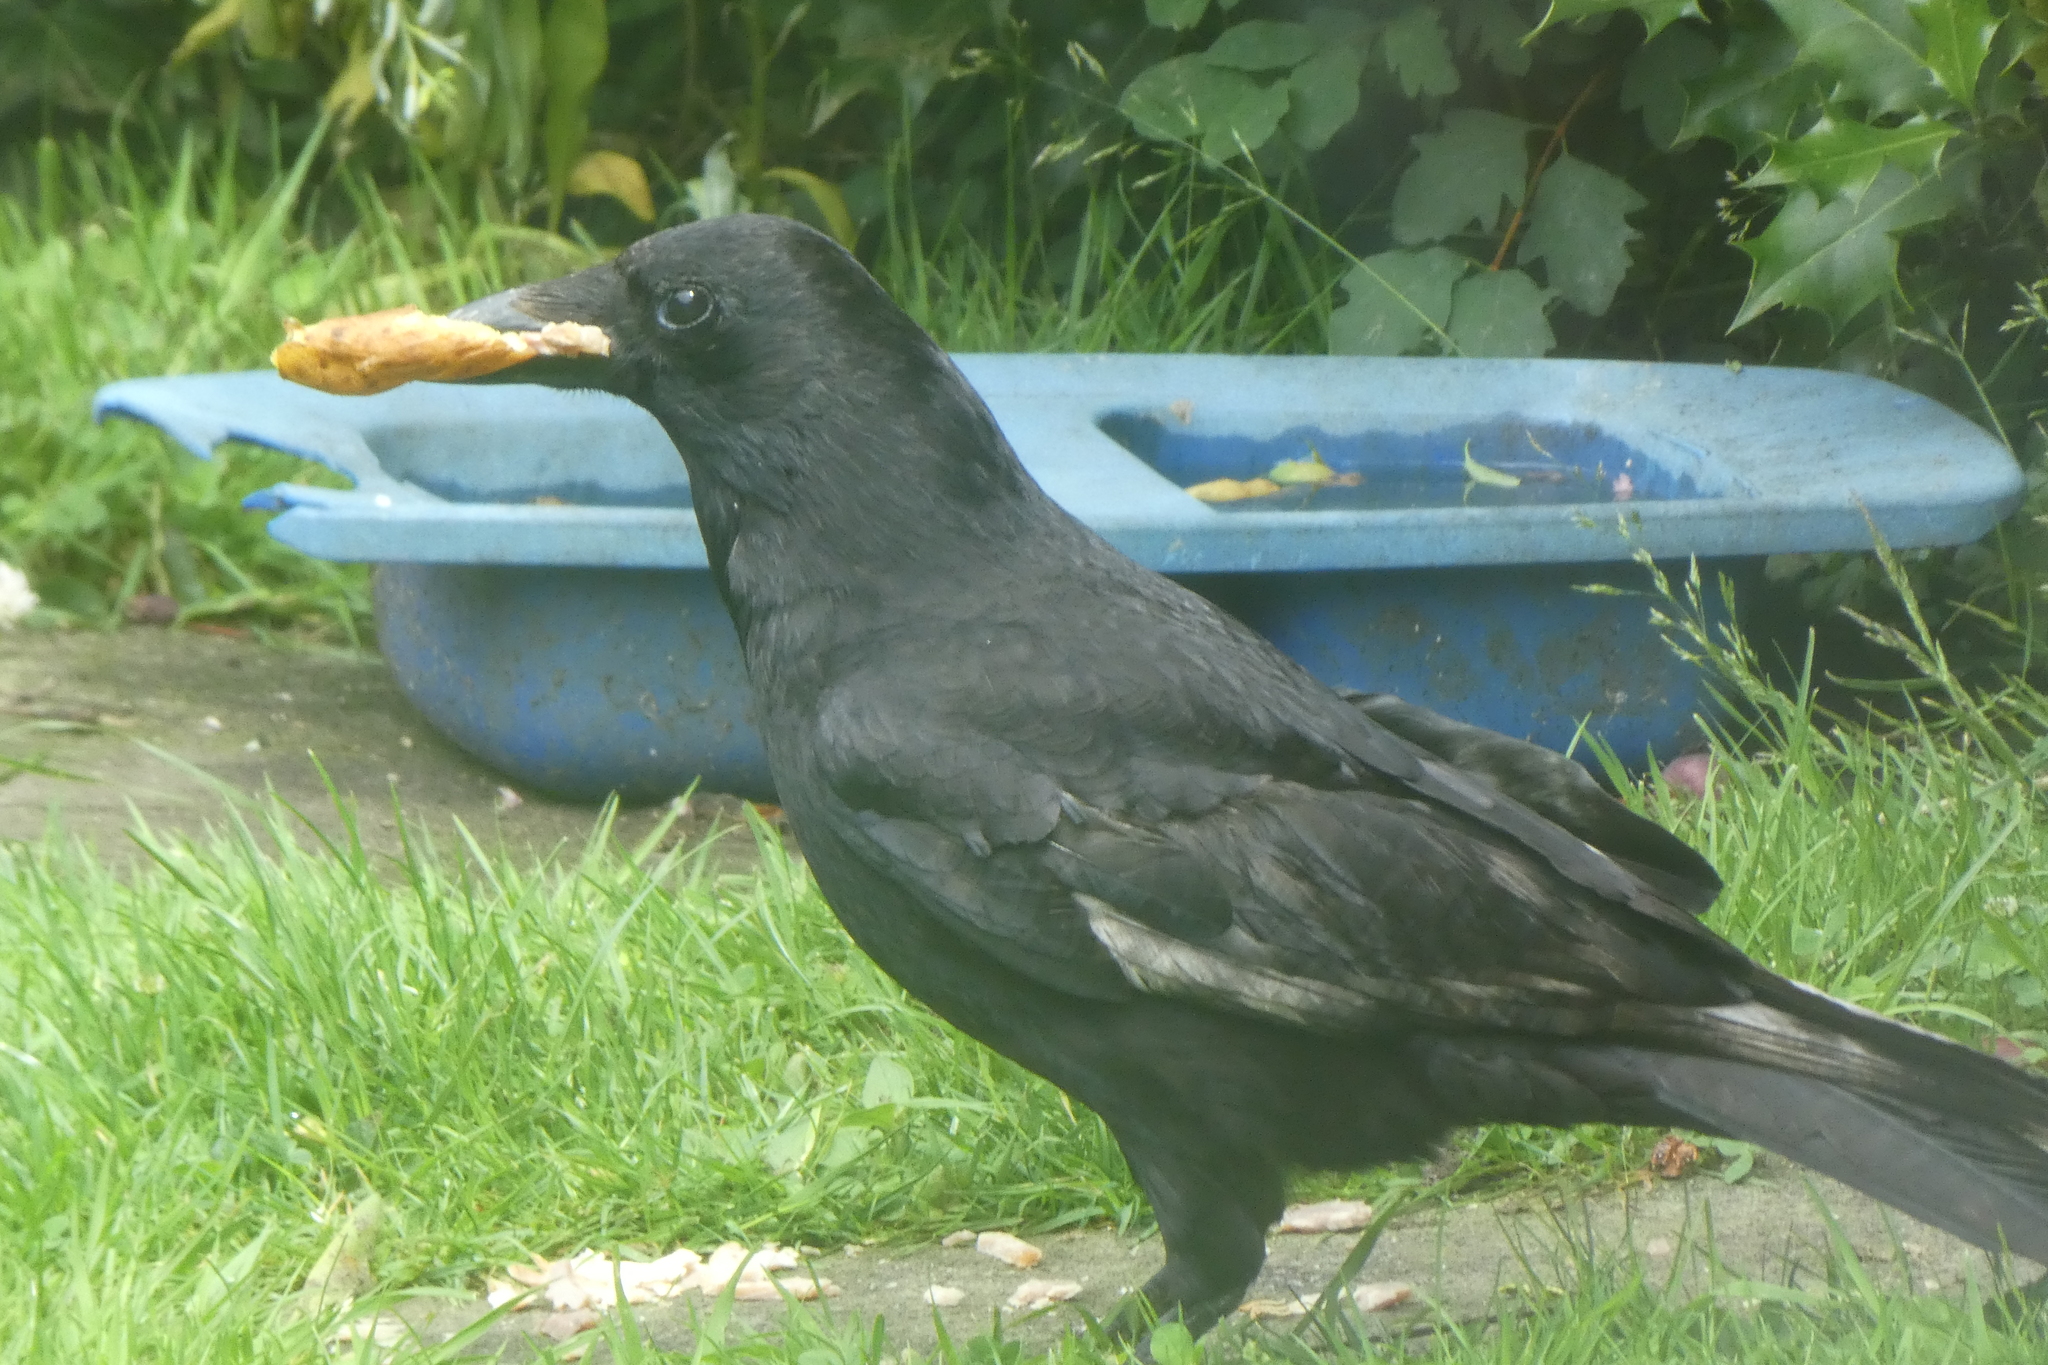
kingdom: Animalia
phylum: Chordata
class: Aves
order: Passeriformes
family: Corvidae
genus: Corvus
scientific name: Corvus corone
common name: Carrion crow
